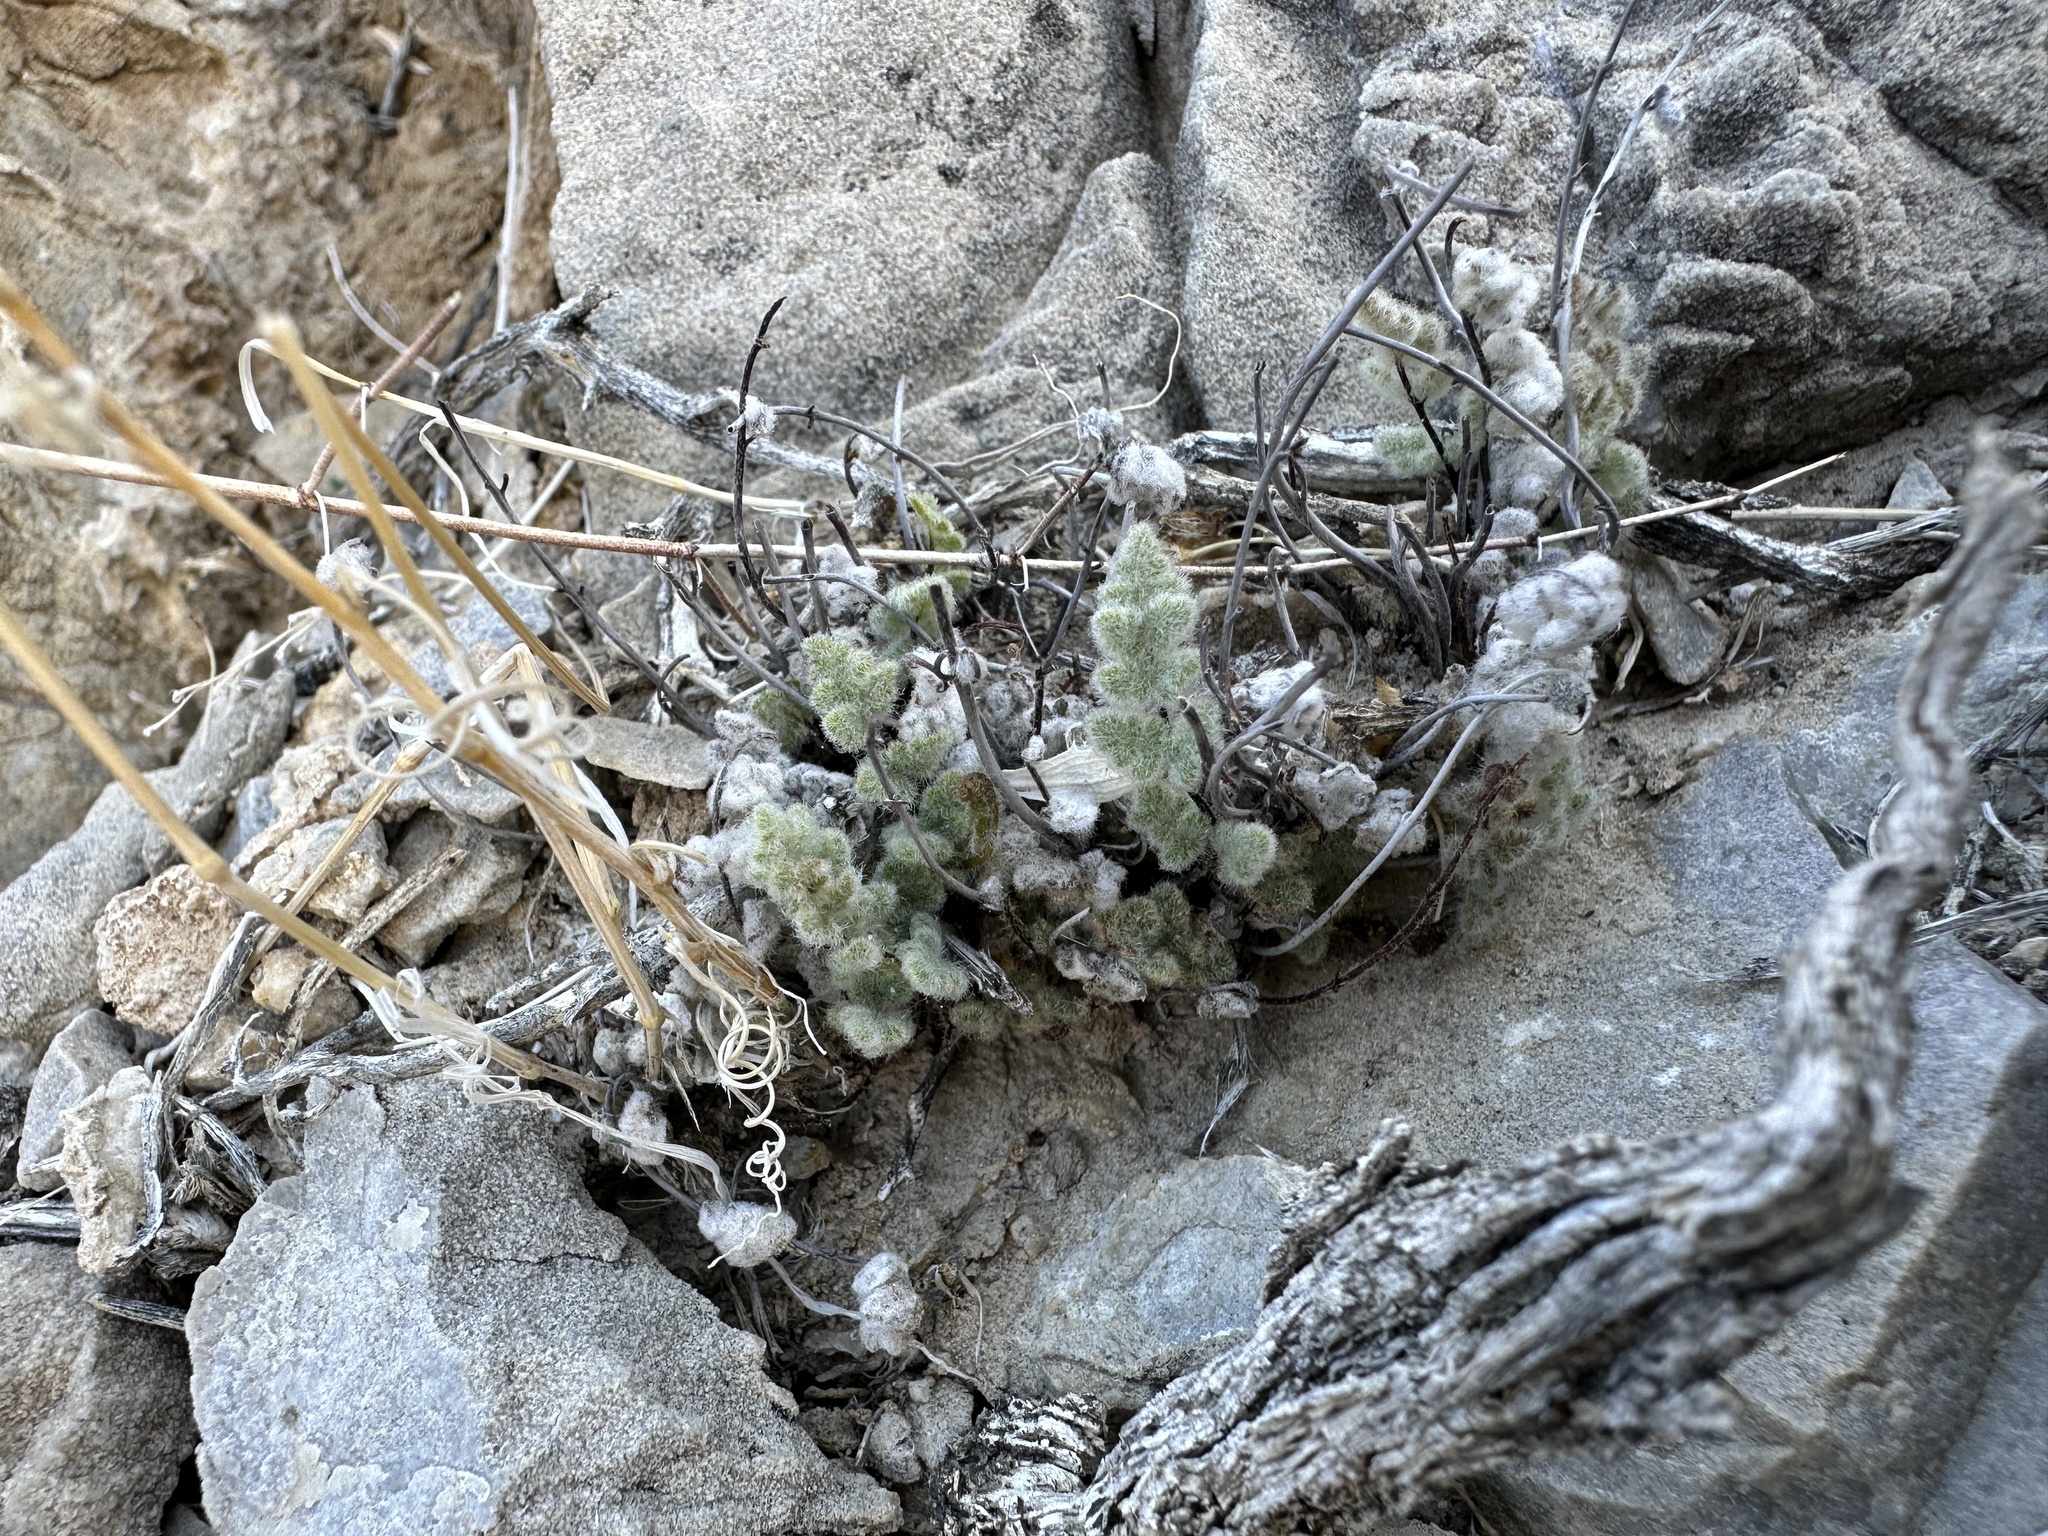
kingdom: Plantae
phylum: Tracheophyta
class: Polypodiopsida
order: Polypodiales
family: Pteridaceae
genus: Myriopteris
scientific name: Myriopteris parryi
